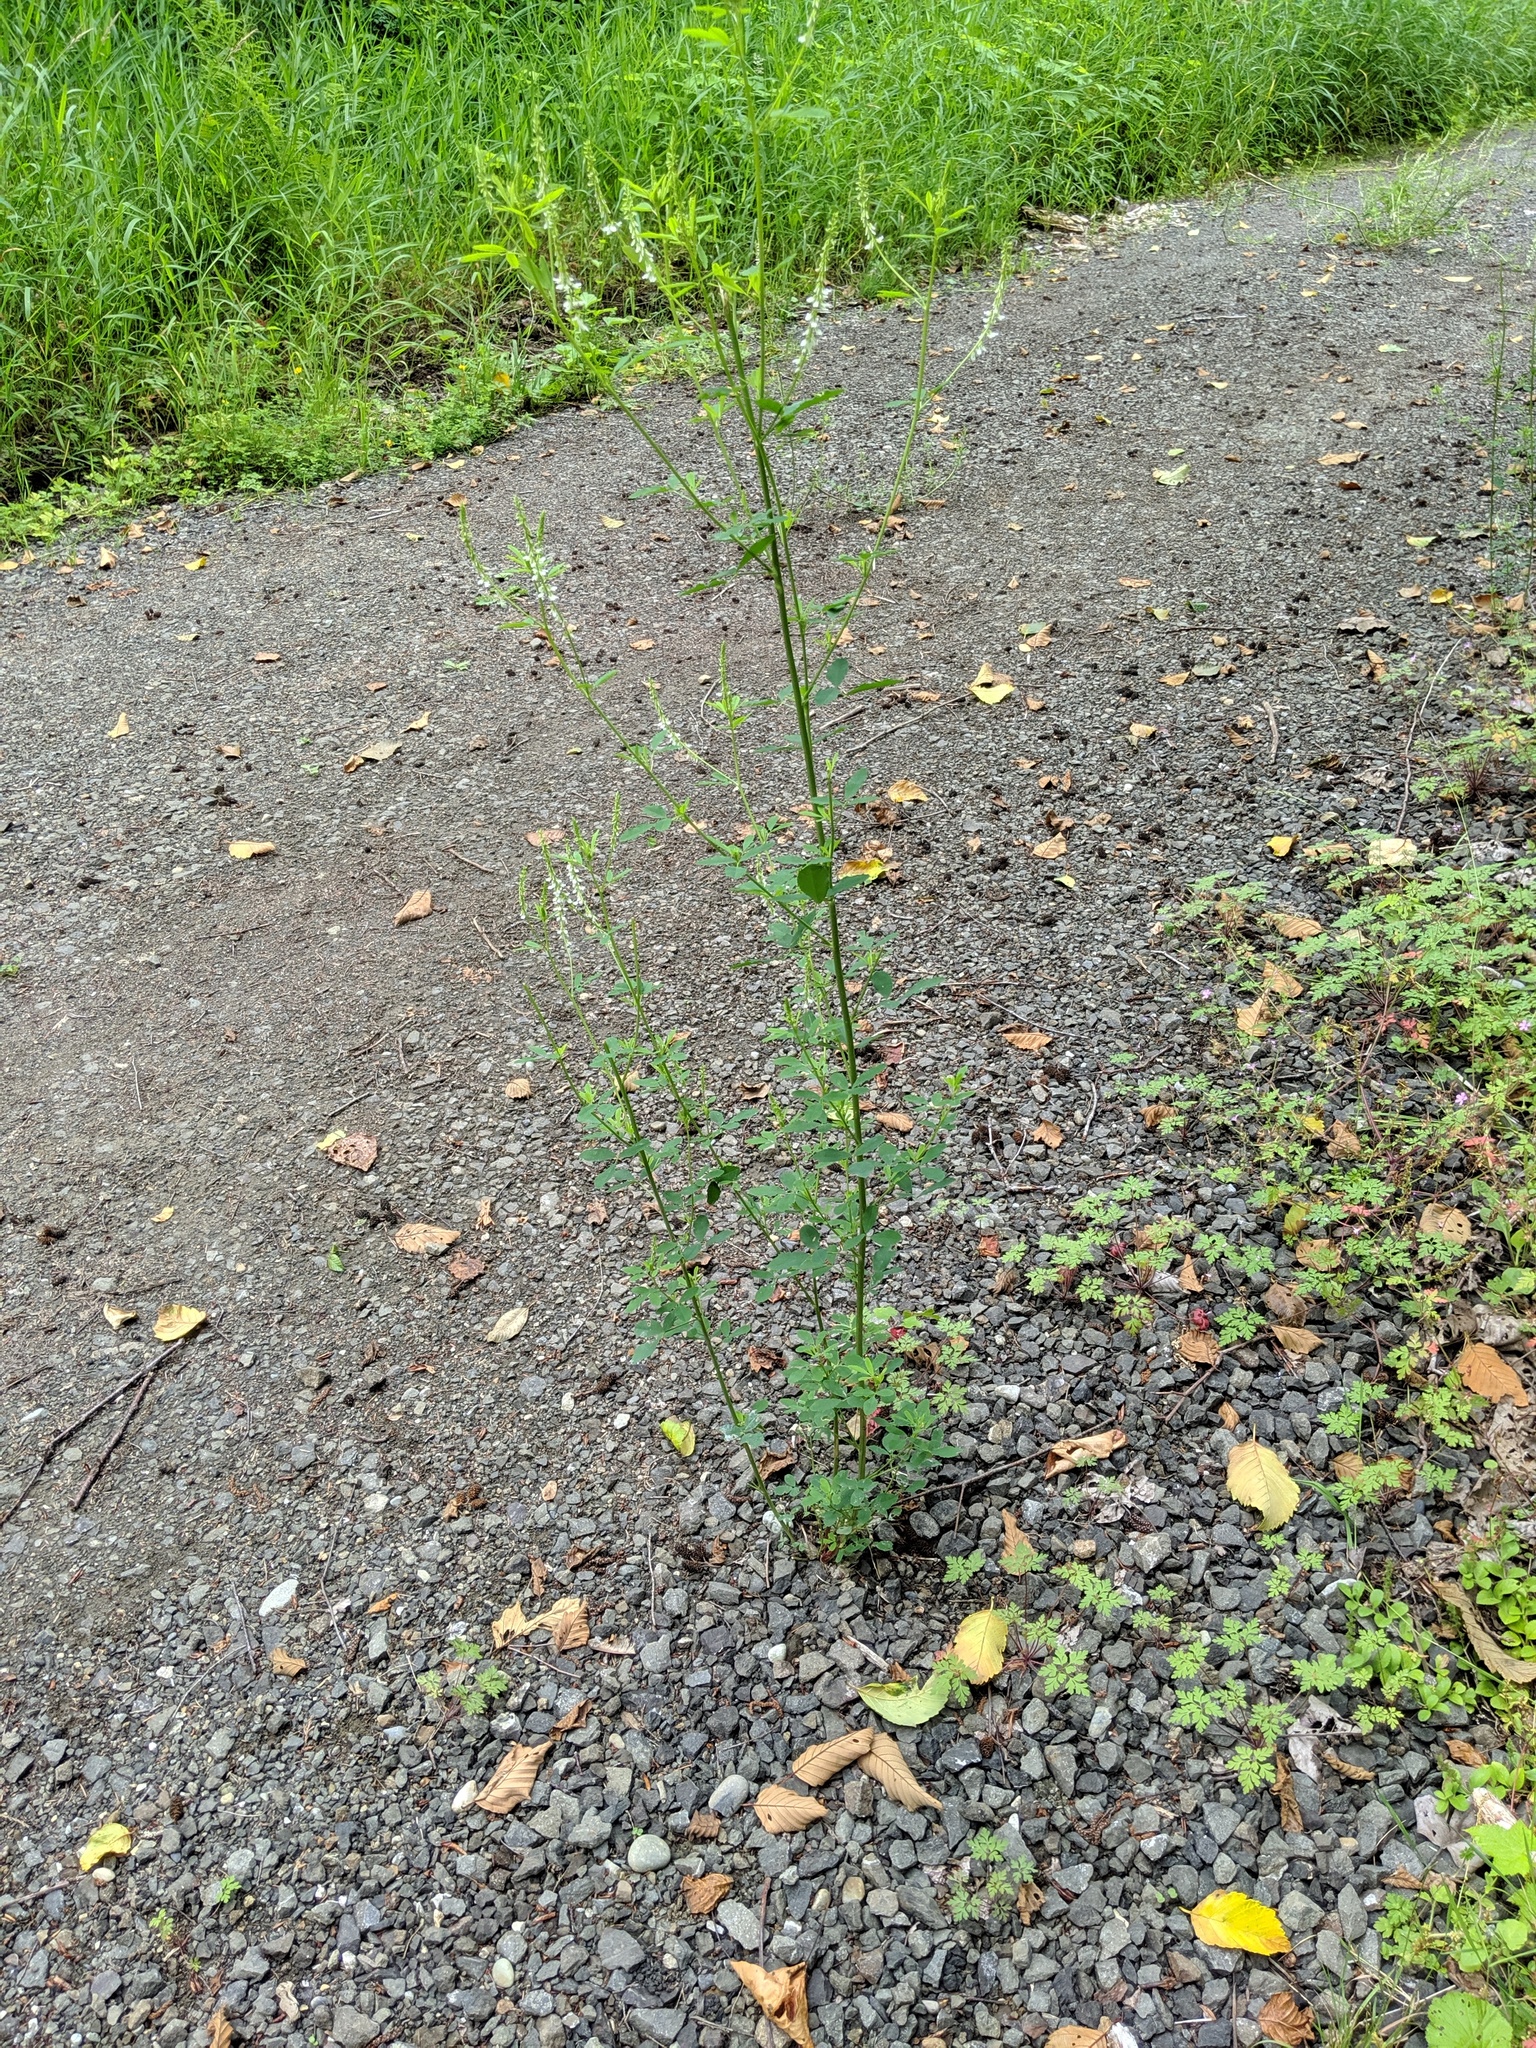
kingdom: Plantae
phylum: Tracheophyta
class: Magnoliopsida
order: Fabales
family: Fabaceae
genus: Melilotus
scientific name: Melilotus albus
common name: White melilot
